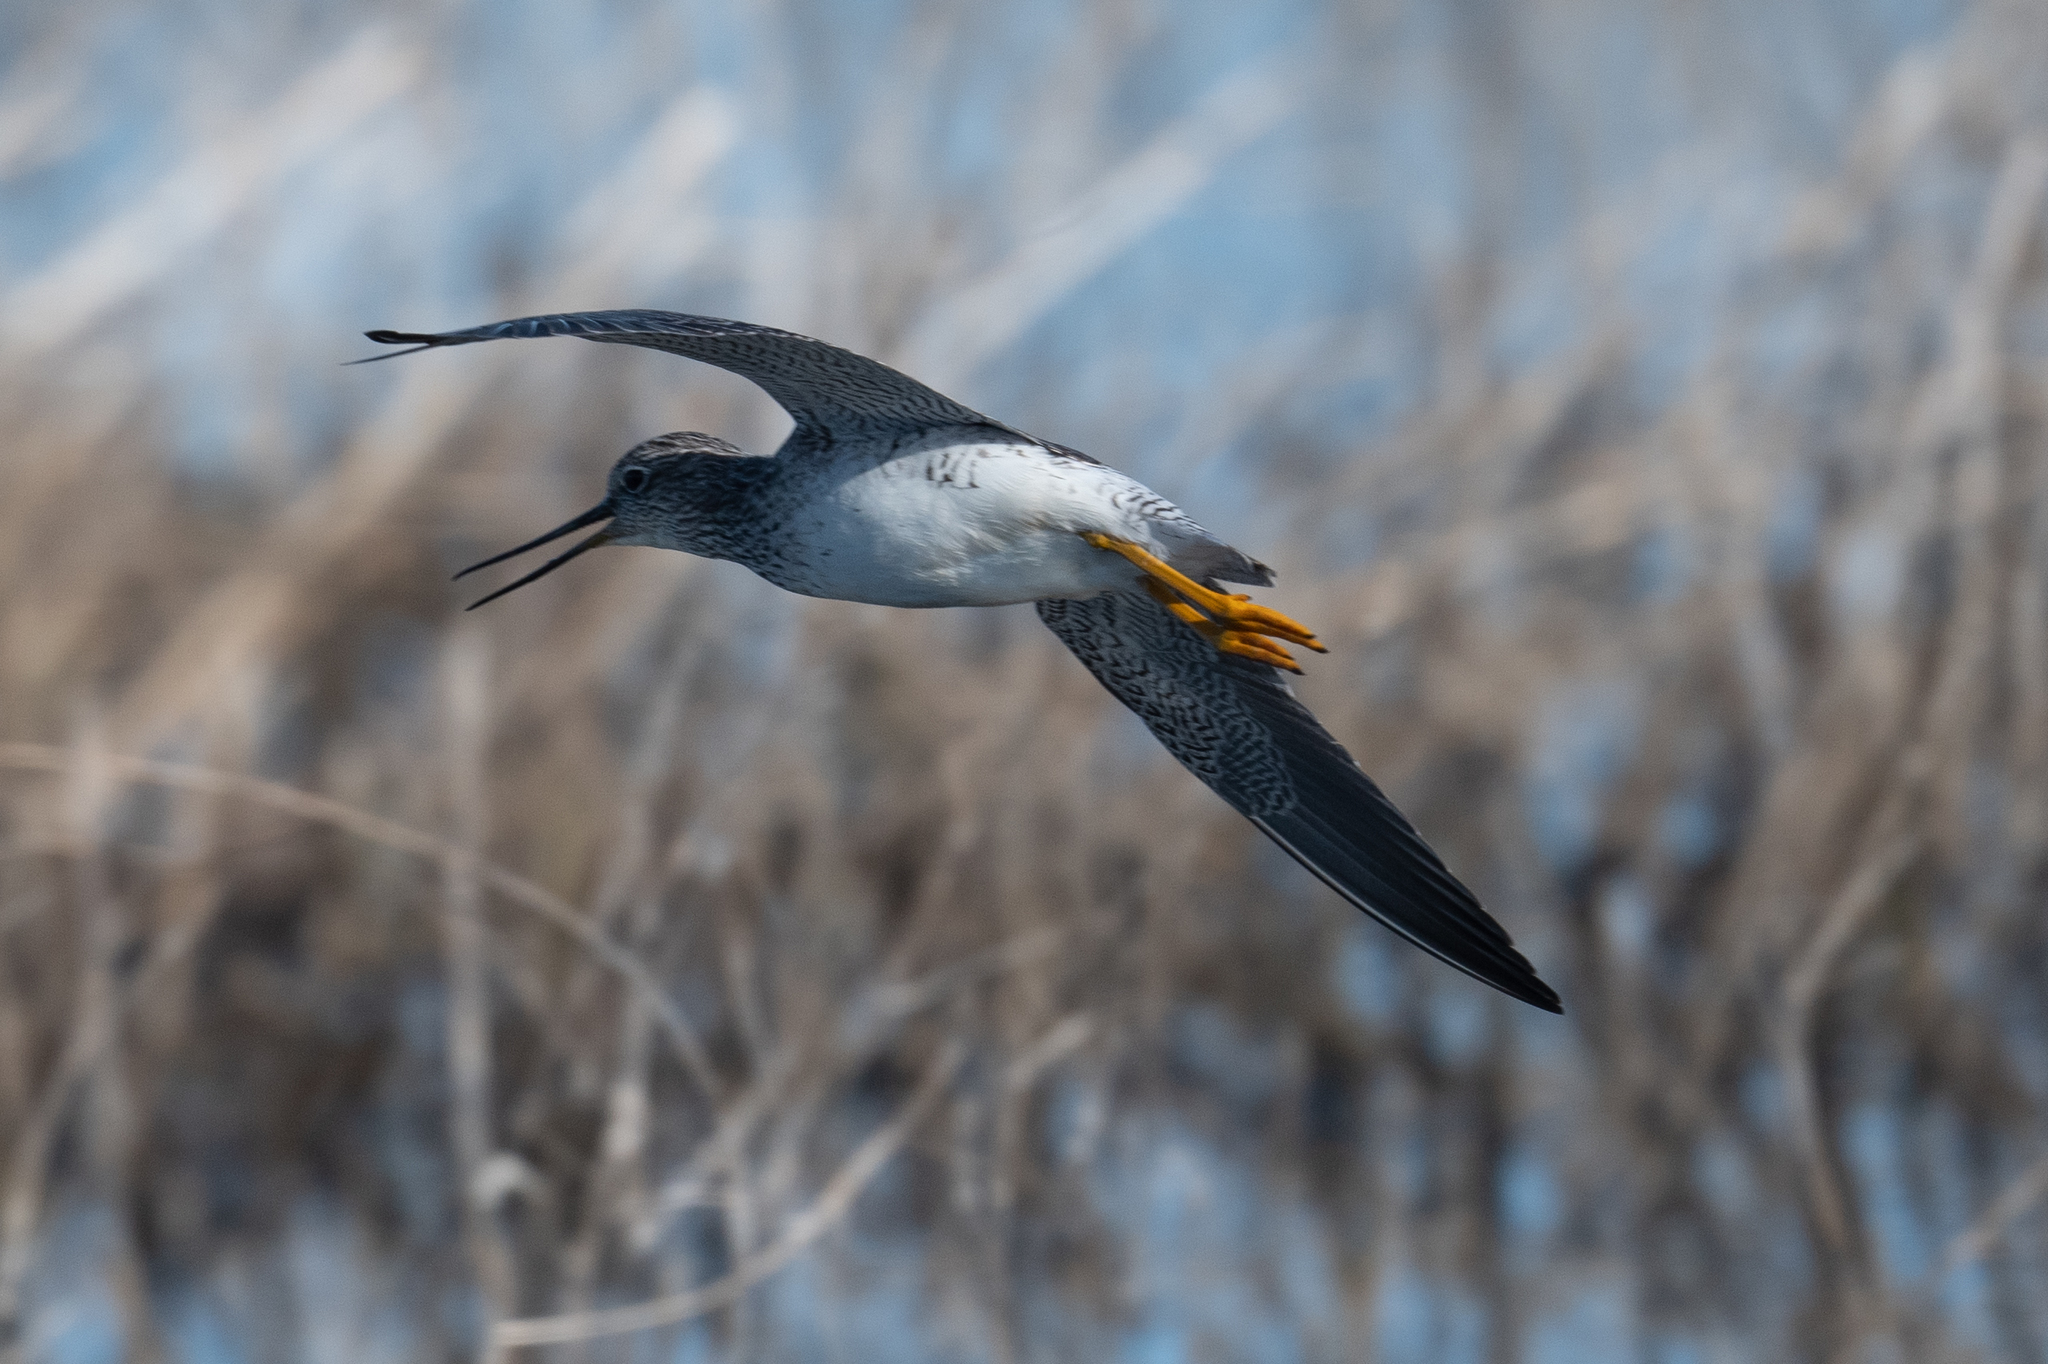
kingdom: Animalia
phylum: Chordata
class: Aves
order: Charadriiformes
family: Scolopacidae
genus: Tringa
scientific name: Tringa melanoleuca
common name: Greater yellowlegs
